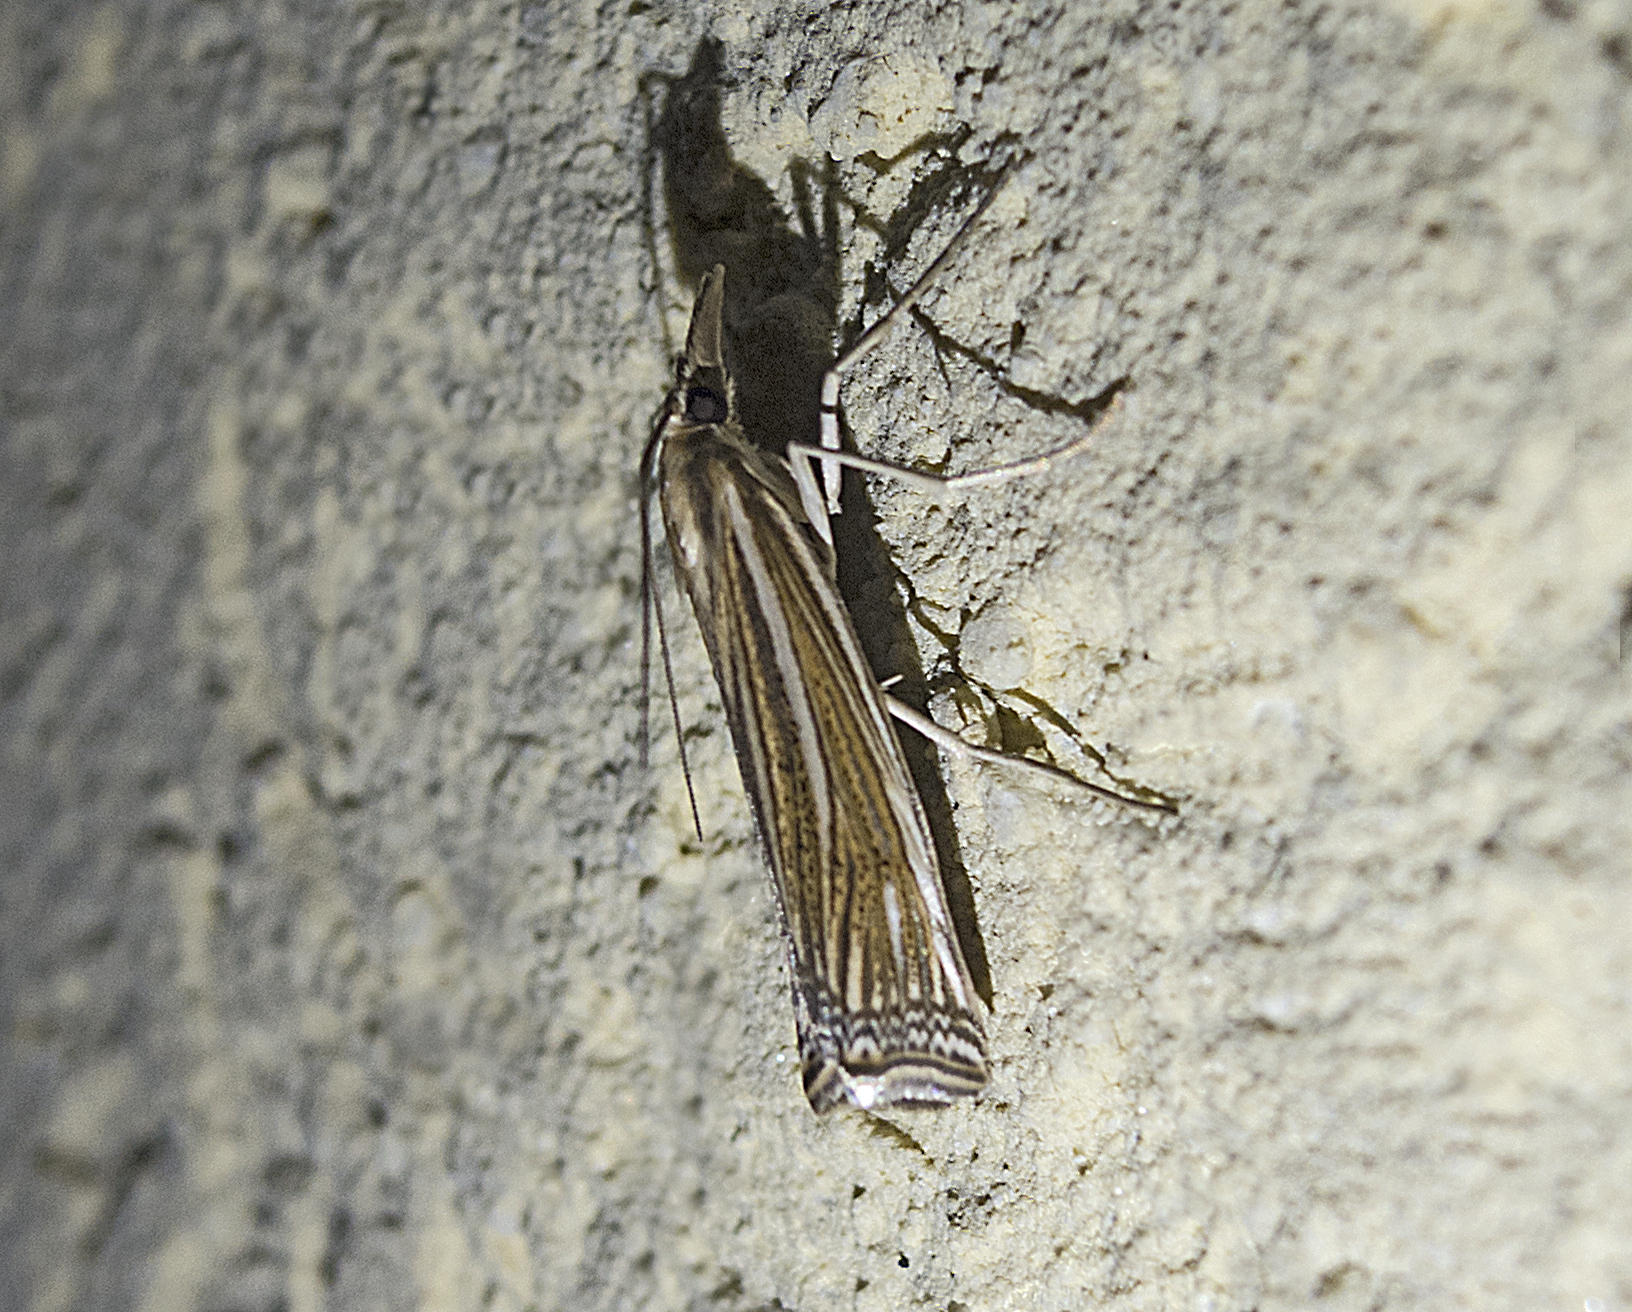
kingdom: Animalia
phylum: Arthropoda
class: Insecta
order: Lepidoptera
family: Crambidae
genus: Ancylolomia
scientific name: Ancylolomia
